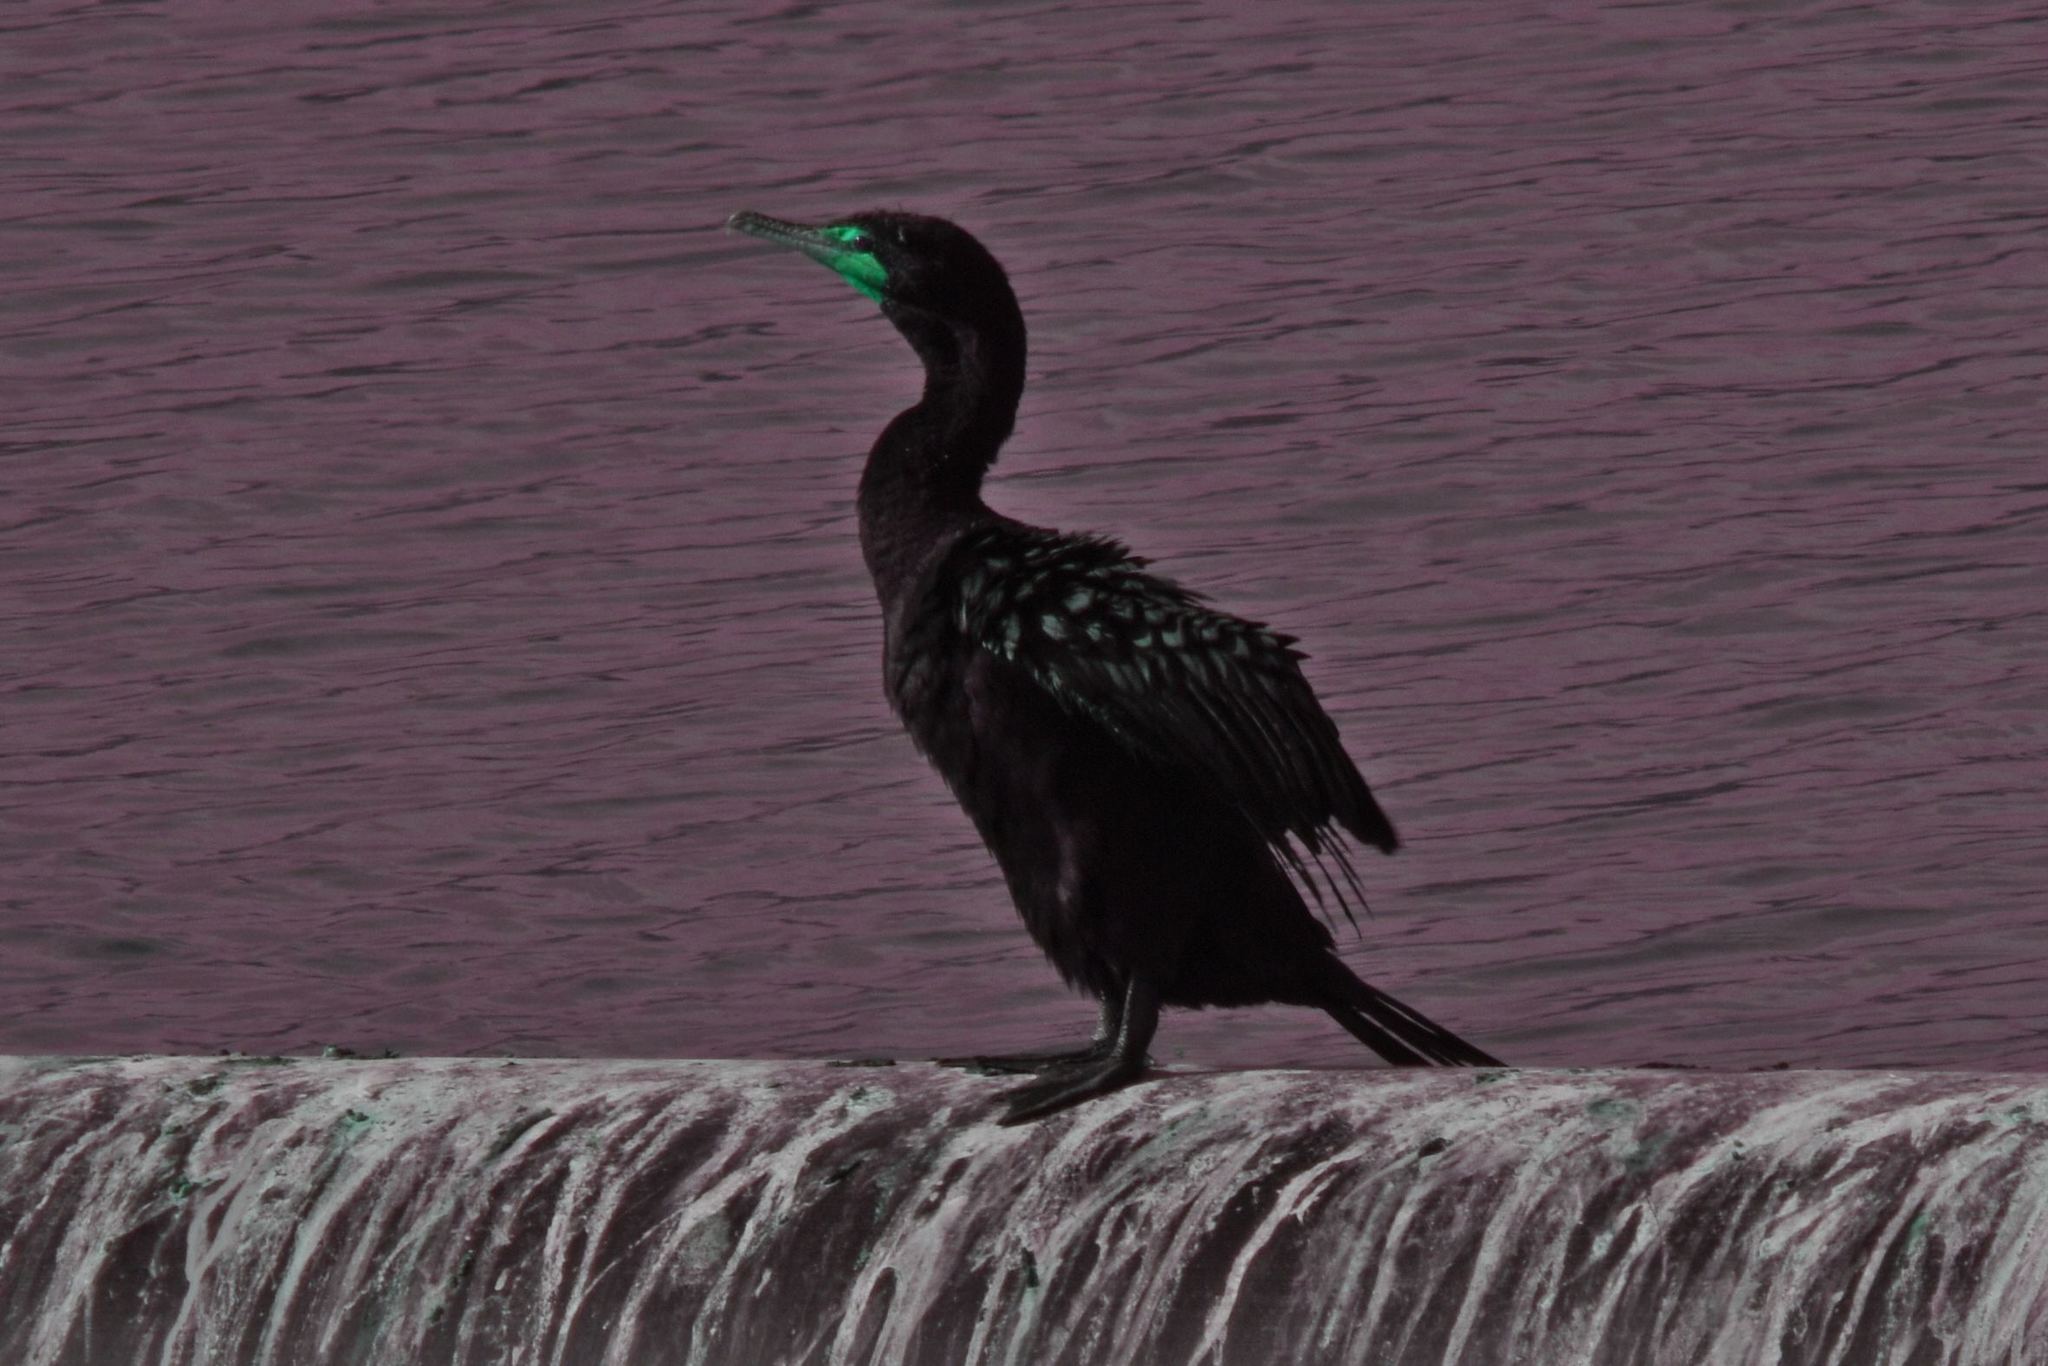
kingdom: Animalia
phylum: Chordata
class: Aves
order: Suliformes
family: Phalacrocoracidae
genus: Phalacrocorax
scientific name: Phalacrocorax auritus
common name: Double-crested cormorant
